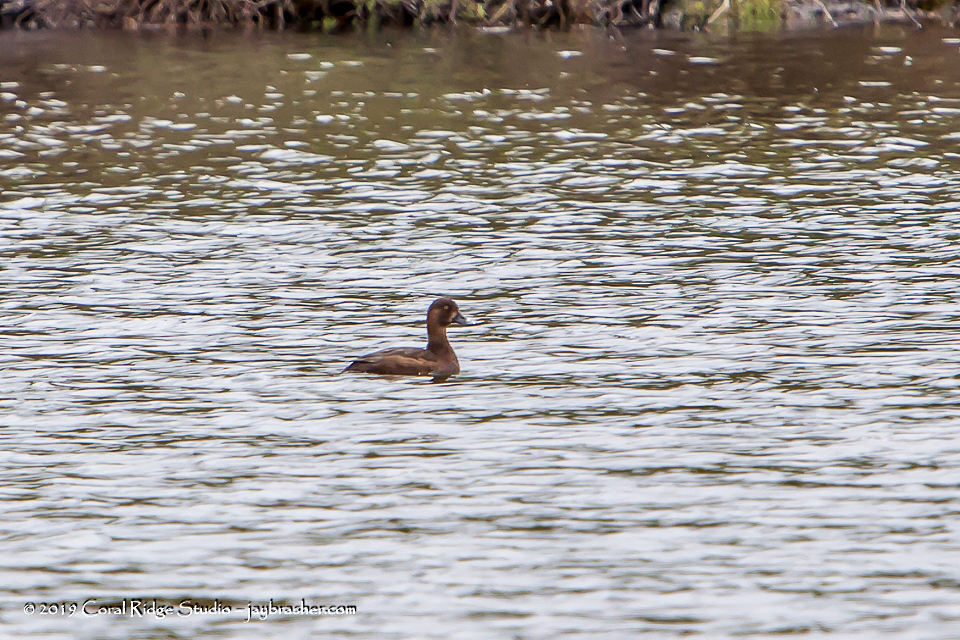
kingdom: Animalia
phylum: Chordata
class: Aves
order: Anseriformes
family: Anatidae
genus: Aythya
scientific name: Aythya affinis
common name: Lesser scaup
